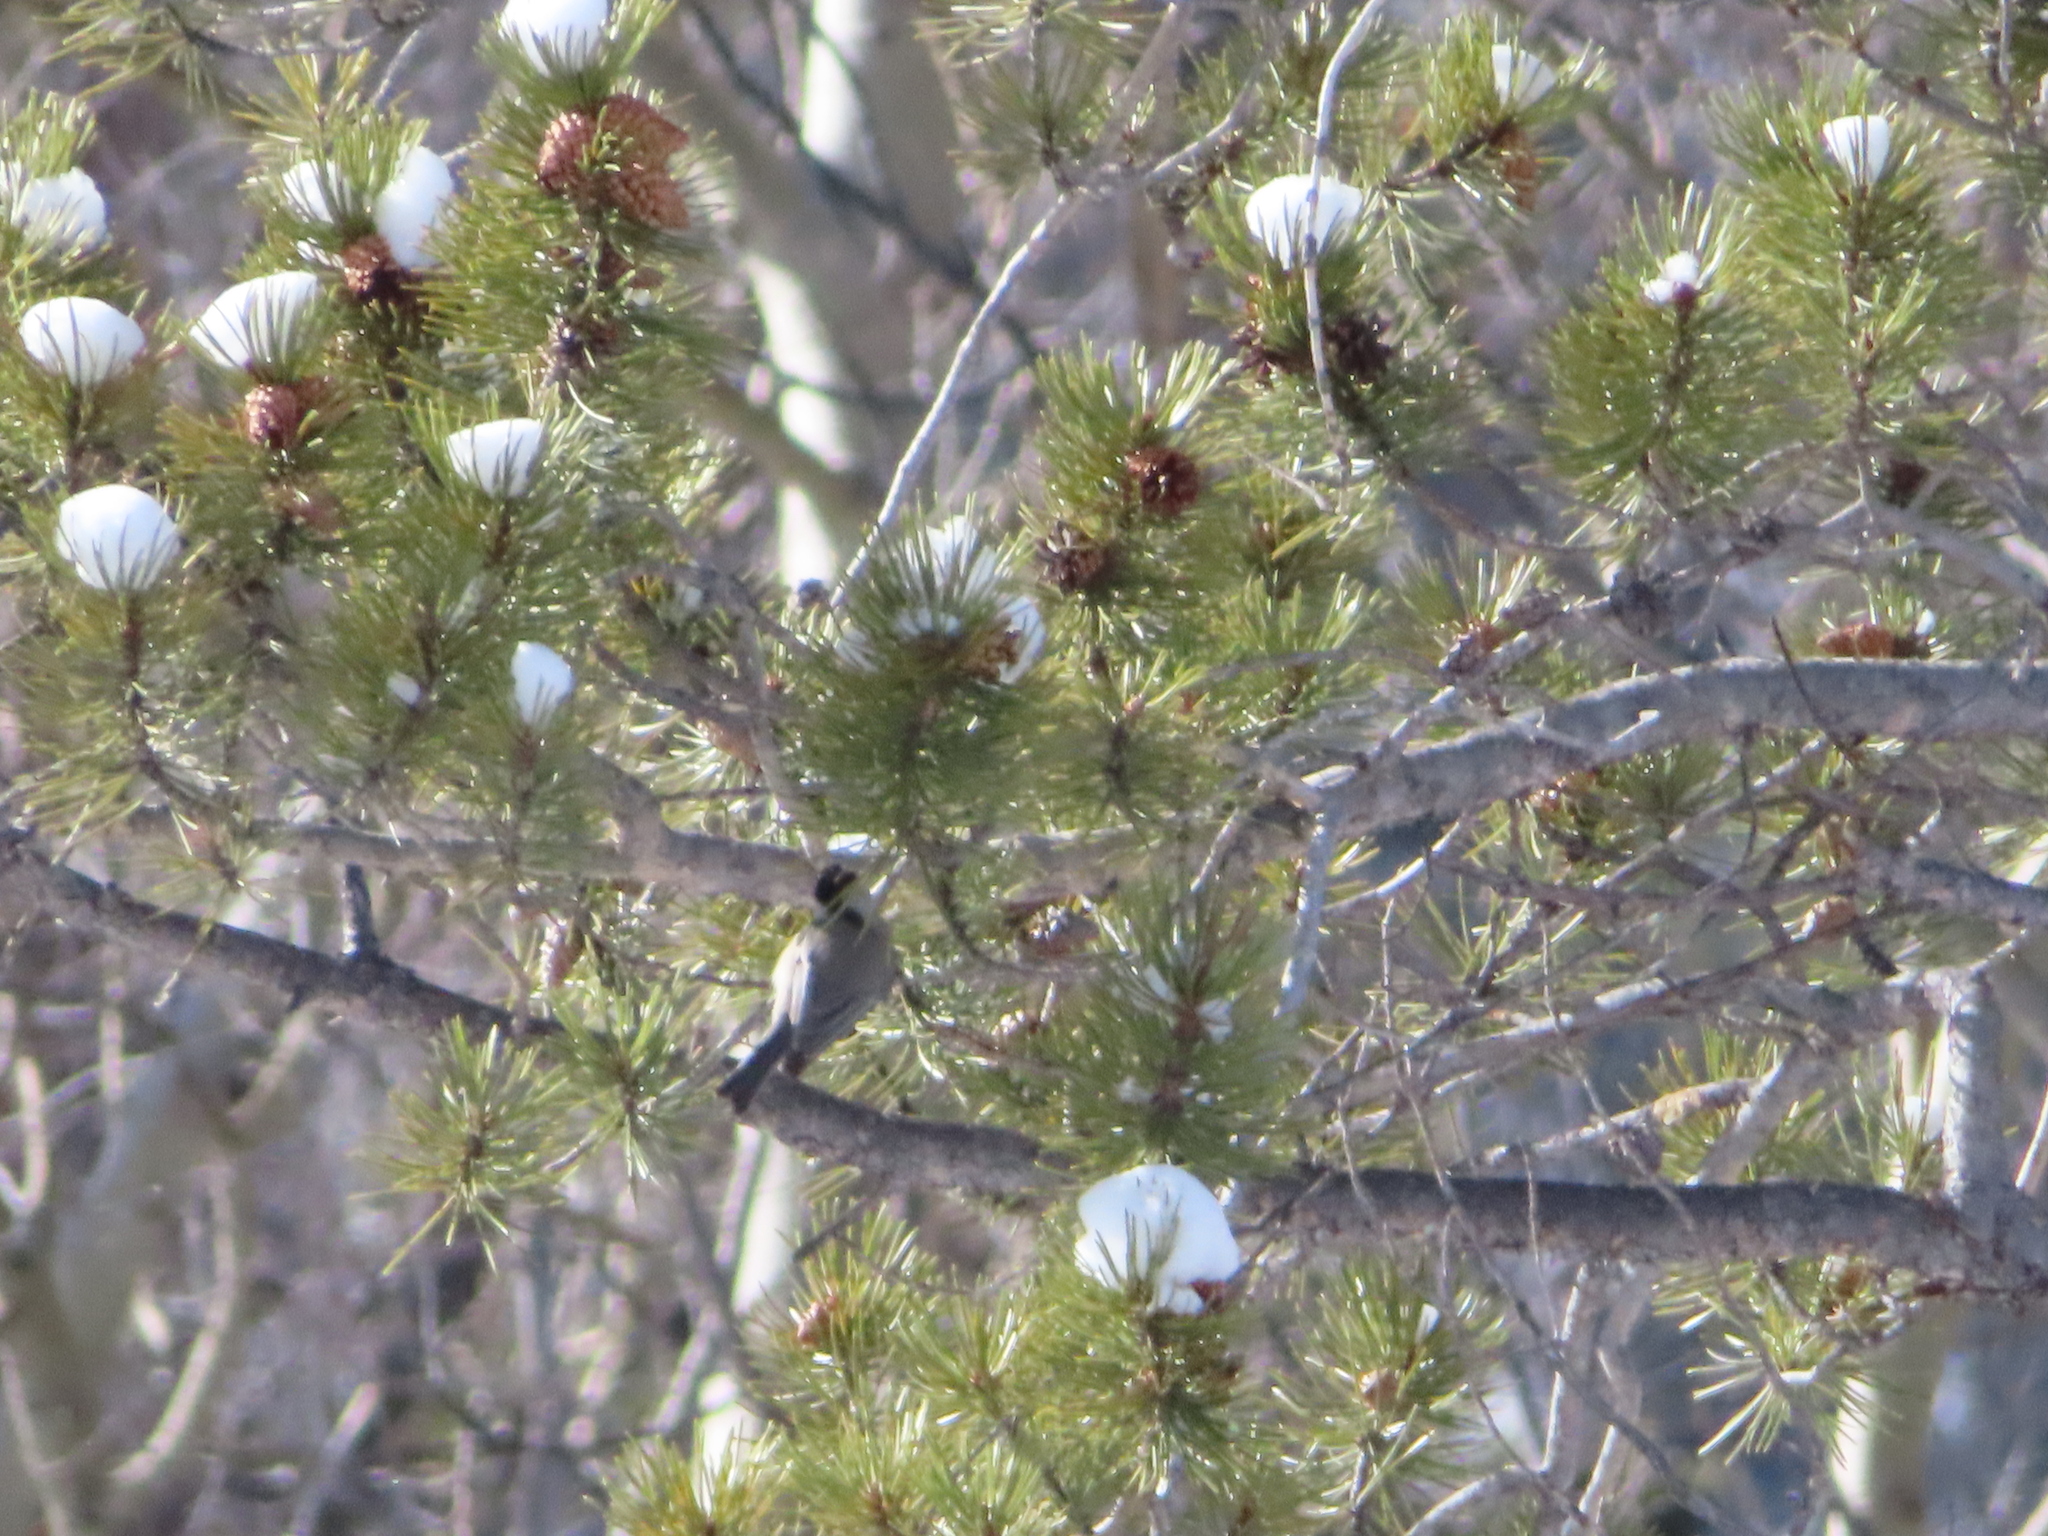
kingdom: Animalia
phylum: Chordata
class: Aves
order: Passeriformes
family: Paridae
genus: Poecile
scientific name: Poecile gambeli
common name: Mountain chickadee
